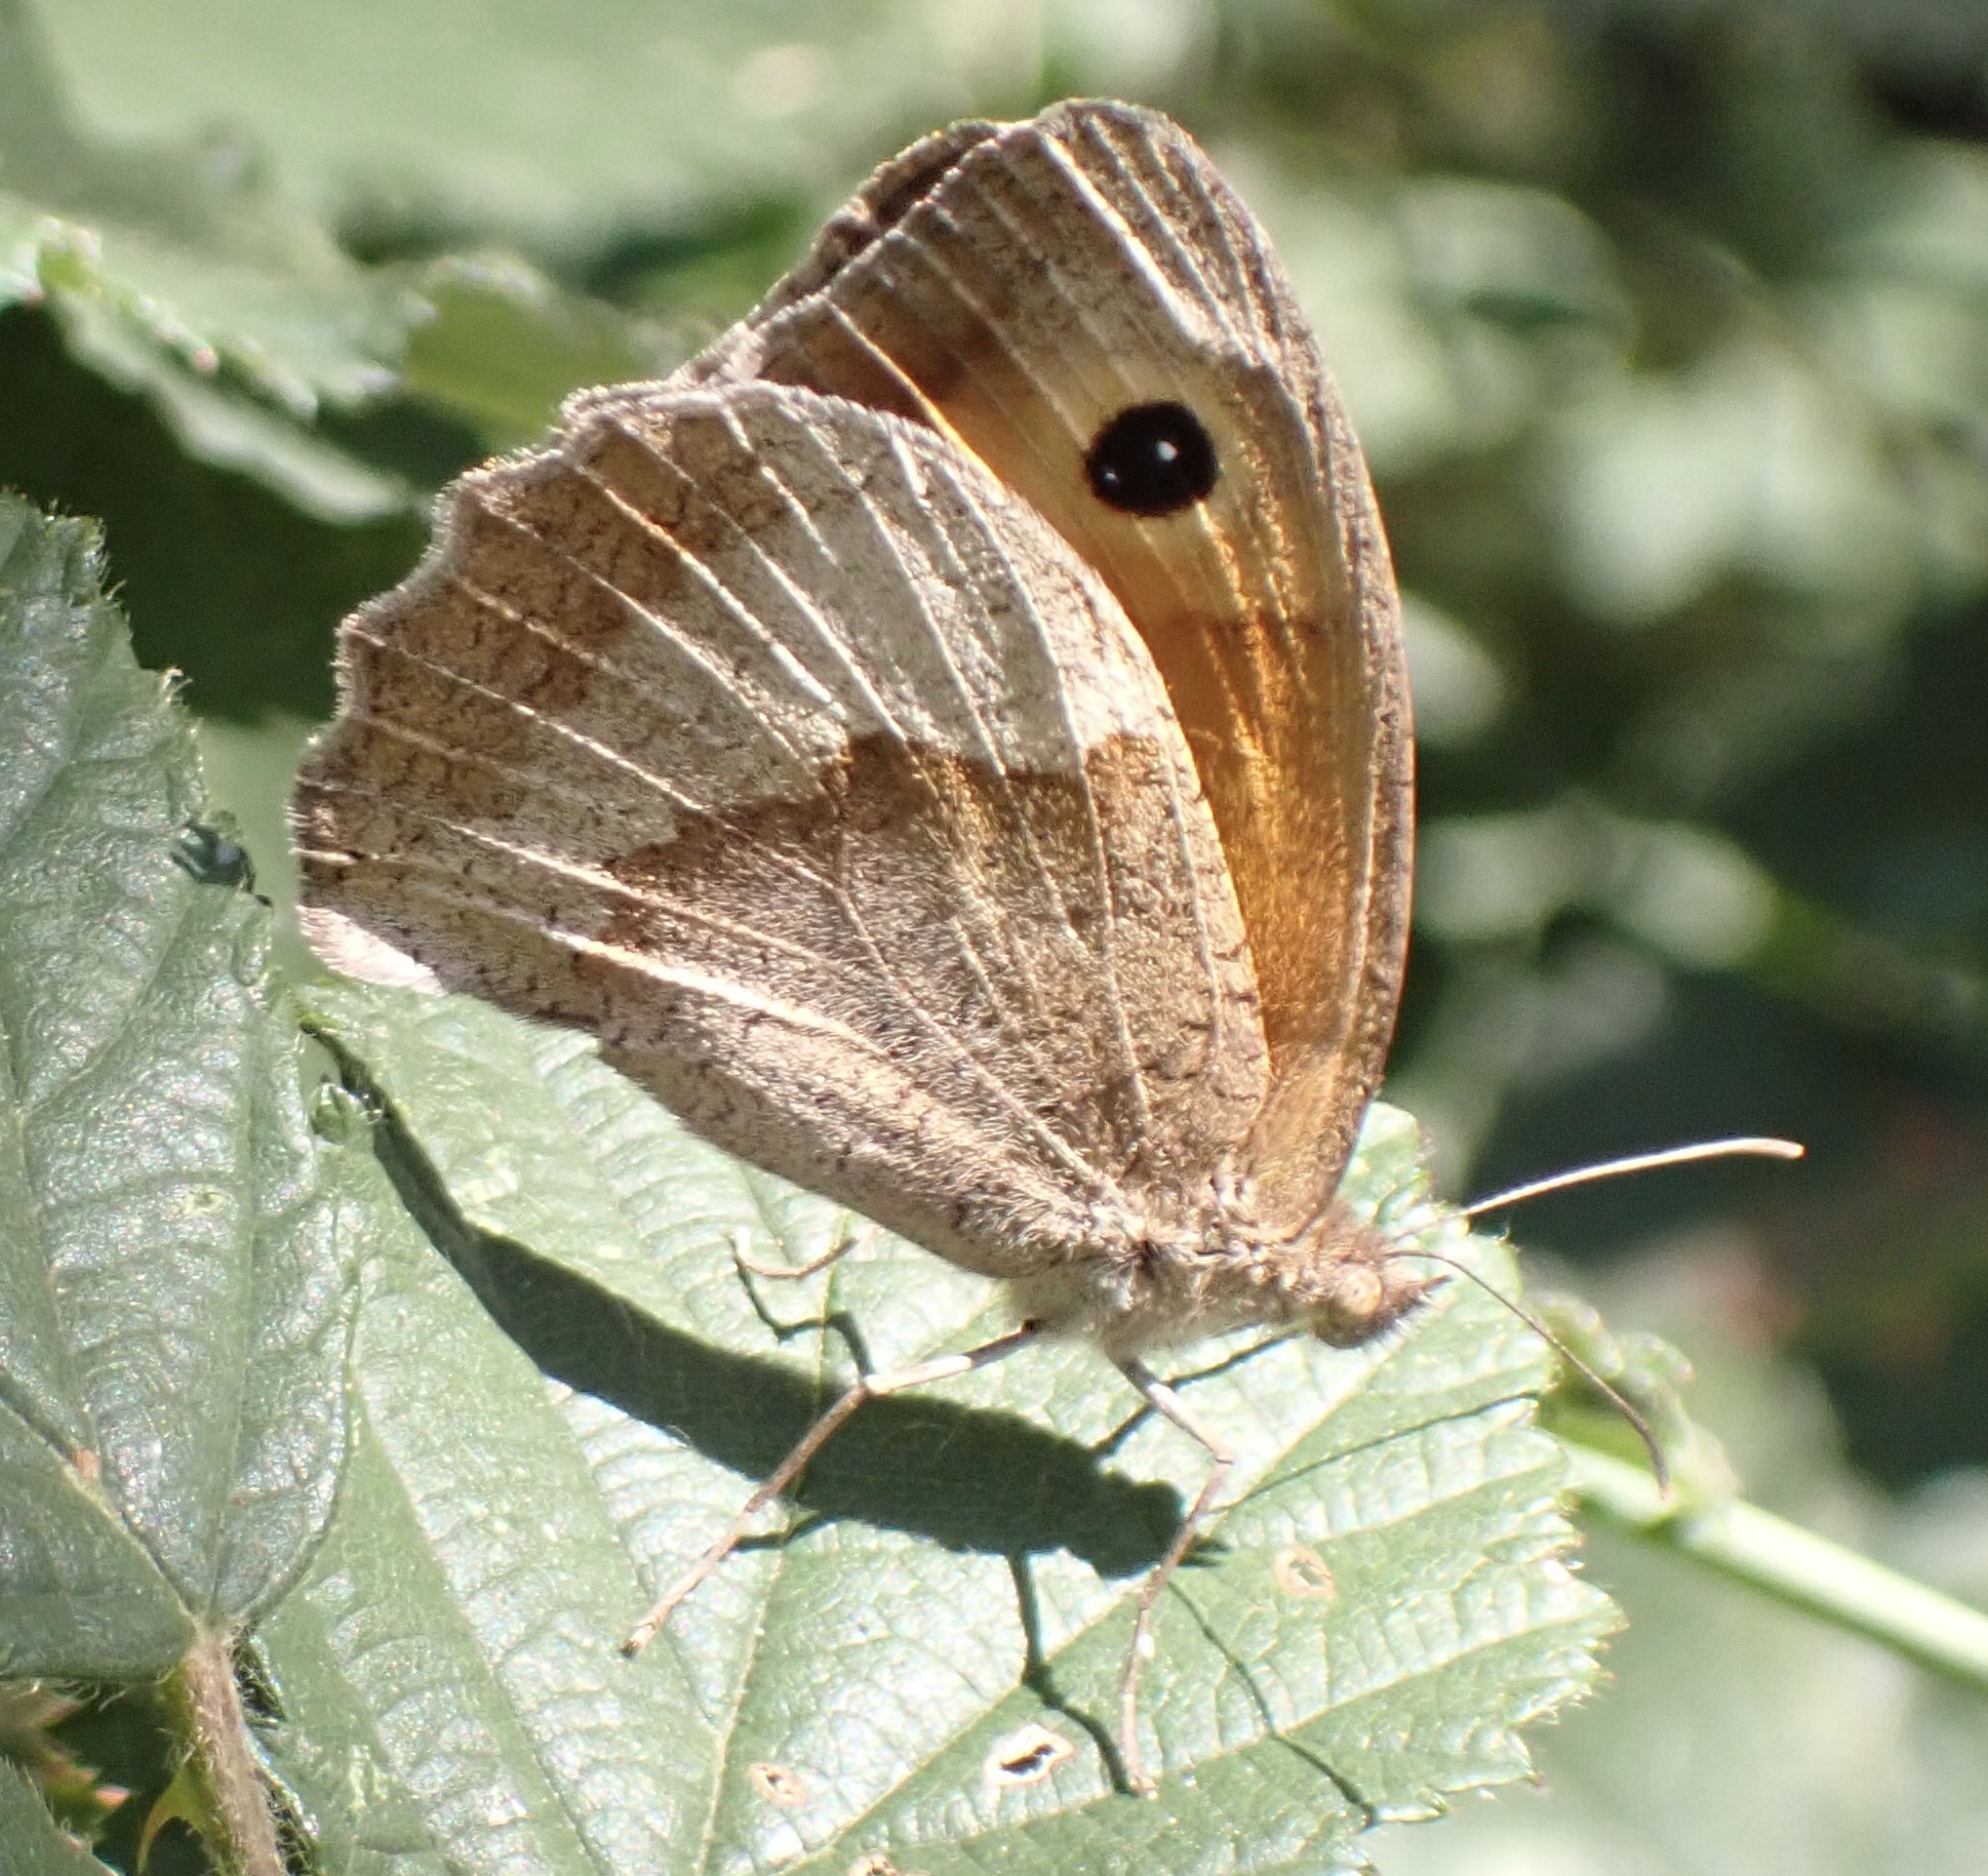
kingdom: Animalia
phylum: Arthropoda
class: Insecta
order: Lepidoptera
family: Nymphalidae
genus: Maniola
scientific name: Maniola jurtina
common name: Meadow brown
